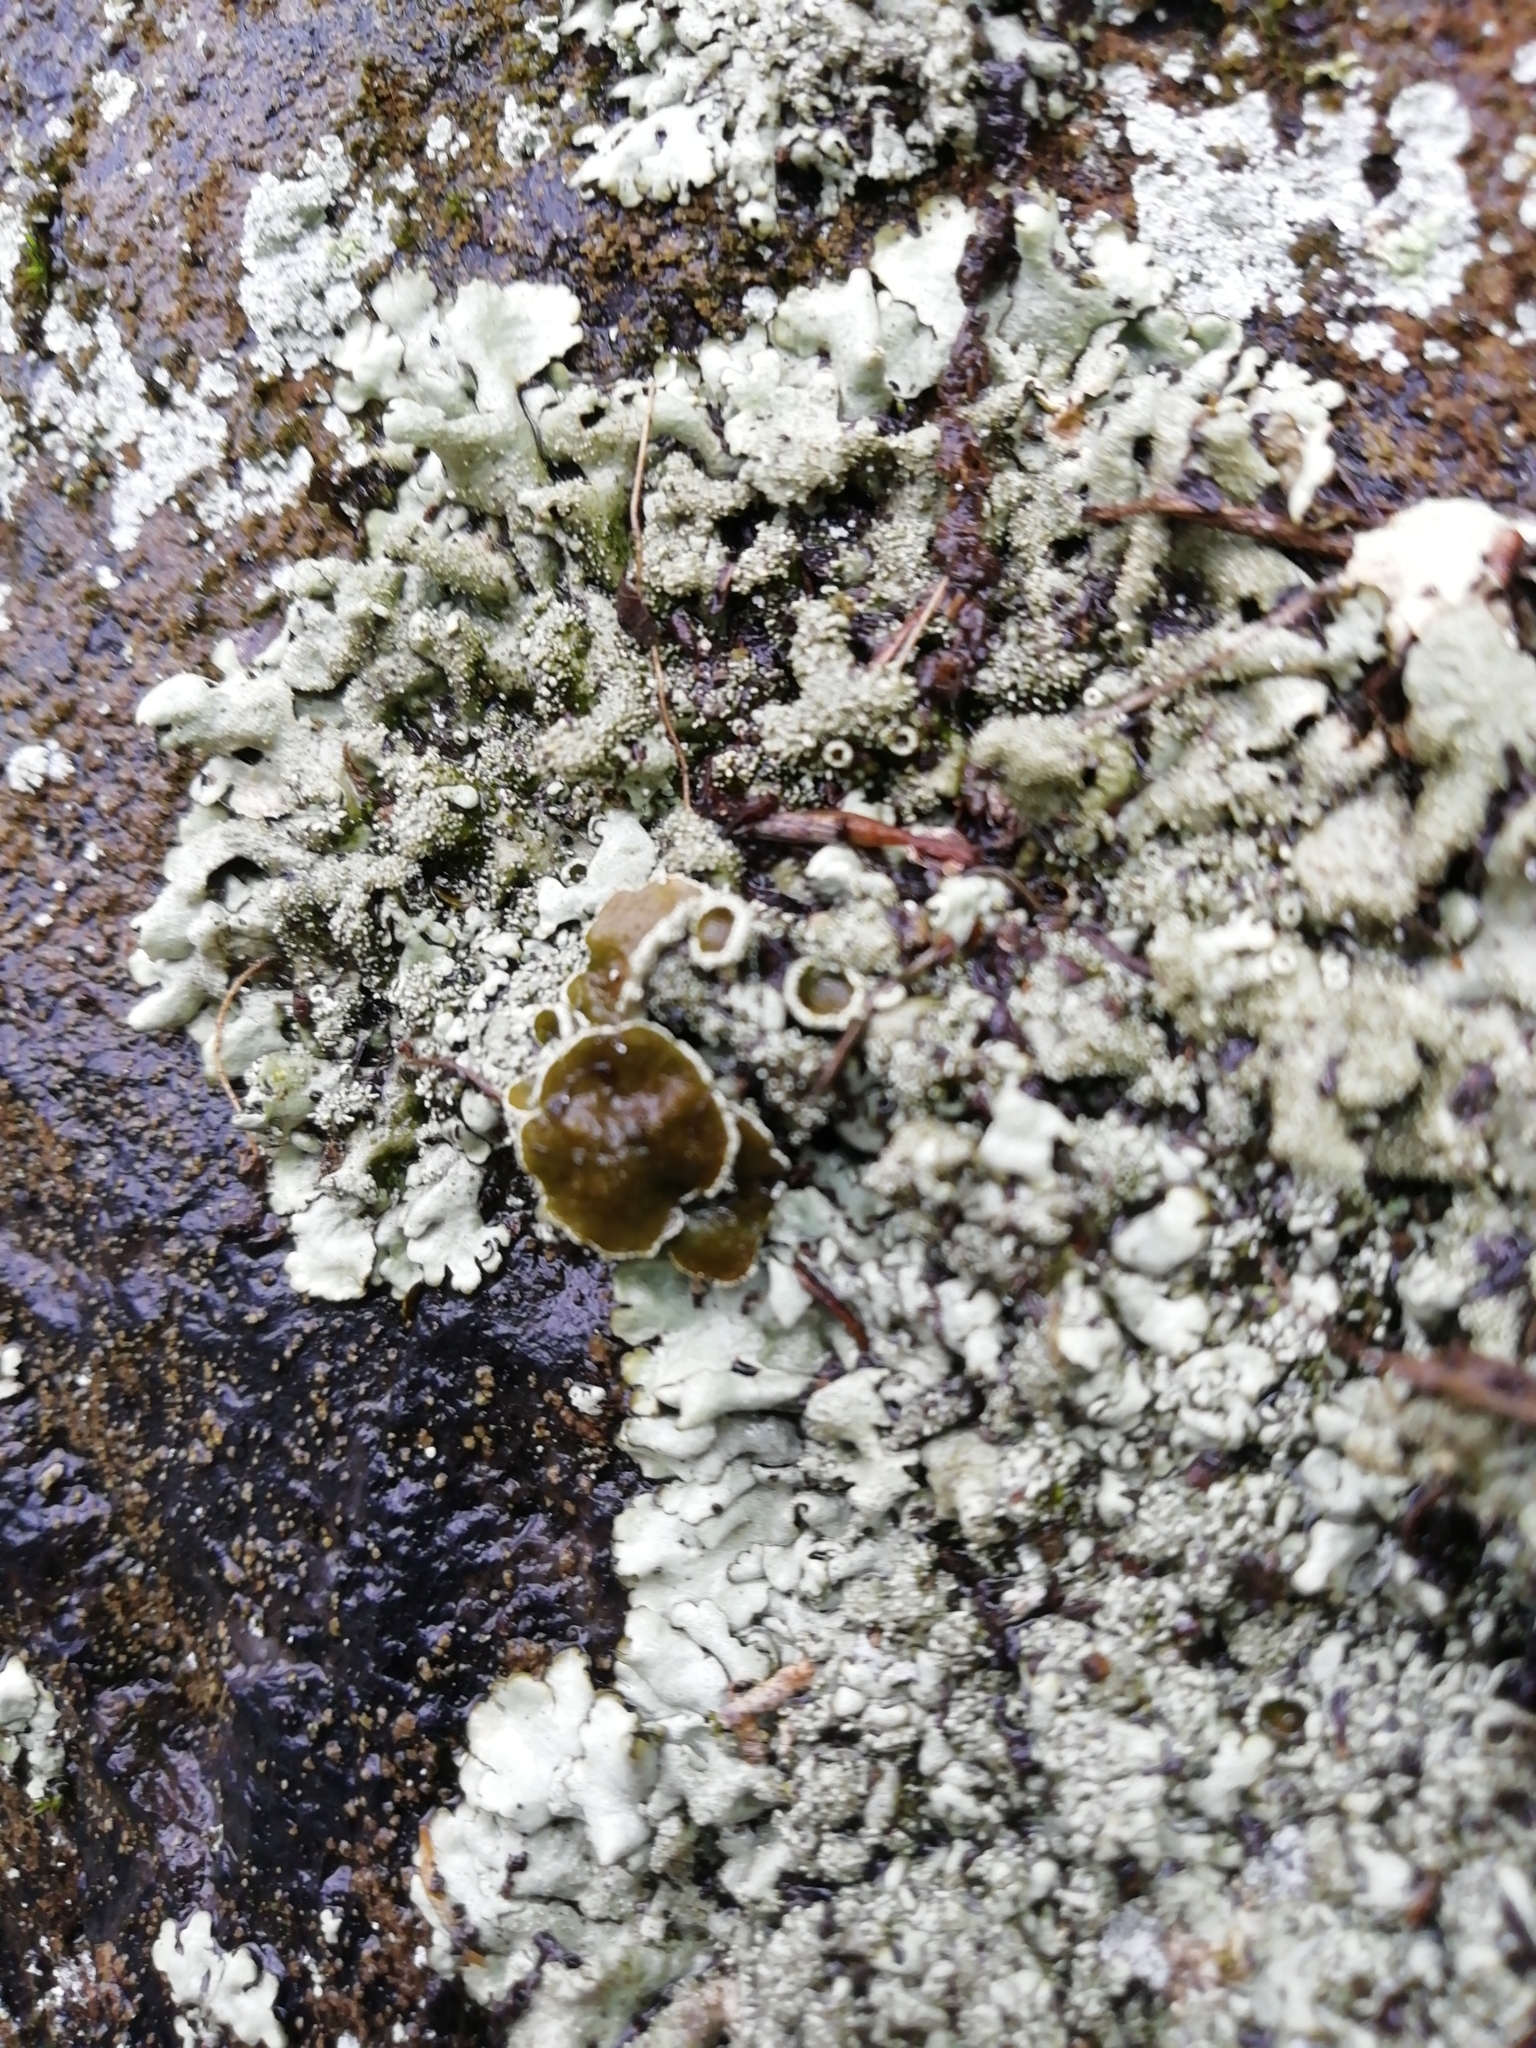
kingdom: Fungi
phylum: Ascomycota
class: Lecanoromycetes
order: Lecanorales
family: Parmeliaceae
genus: Xanthoparmelia
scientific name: Xanthoparmelia conspersa
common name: Peppered rock shield
